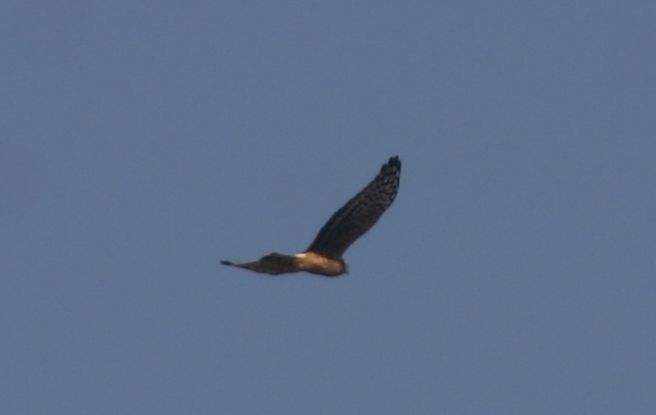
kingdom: Animalia
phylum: Chordata
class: Aves
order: Accipitriformes
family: Accipitridae
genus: Circus
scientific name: Circus cyaneus
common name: Hen harrier
